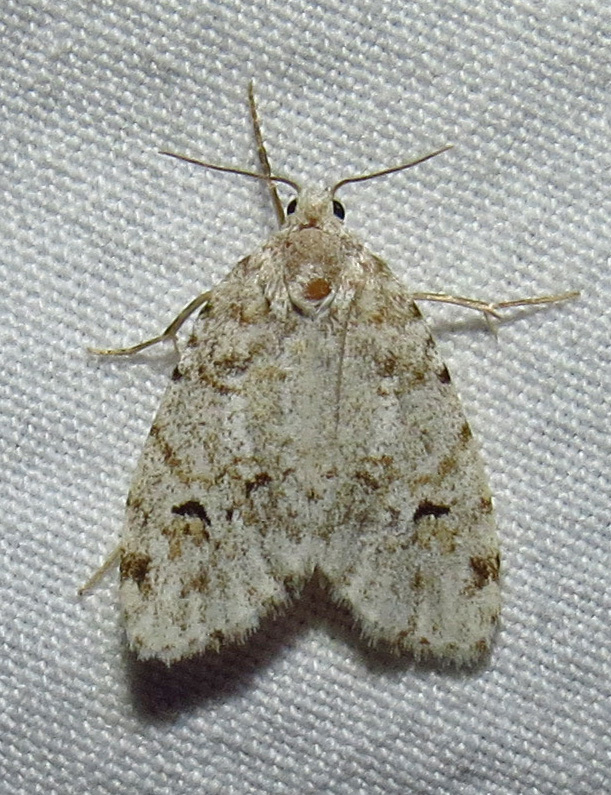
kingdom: Animalia
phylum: Arthropoda
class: Insecta
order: Lepidoptera
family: Erebidae
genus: Clemensia
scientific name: Clemensia albata
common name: Little white lichen moth
